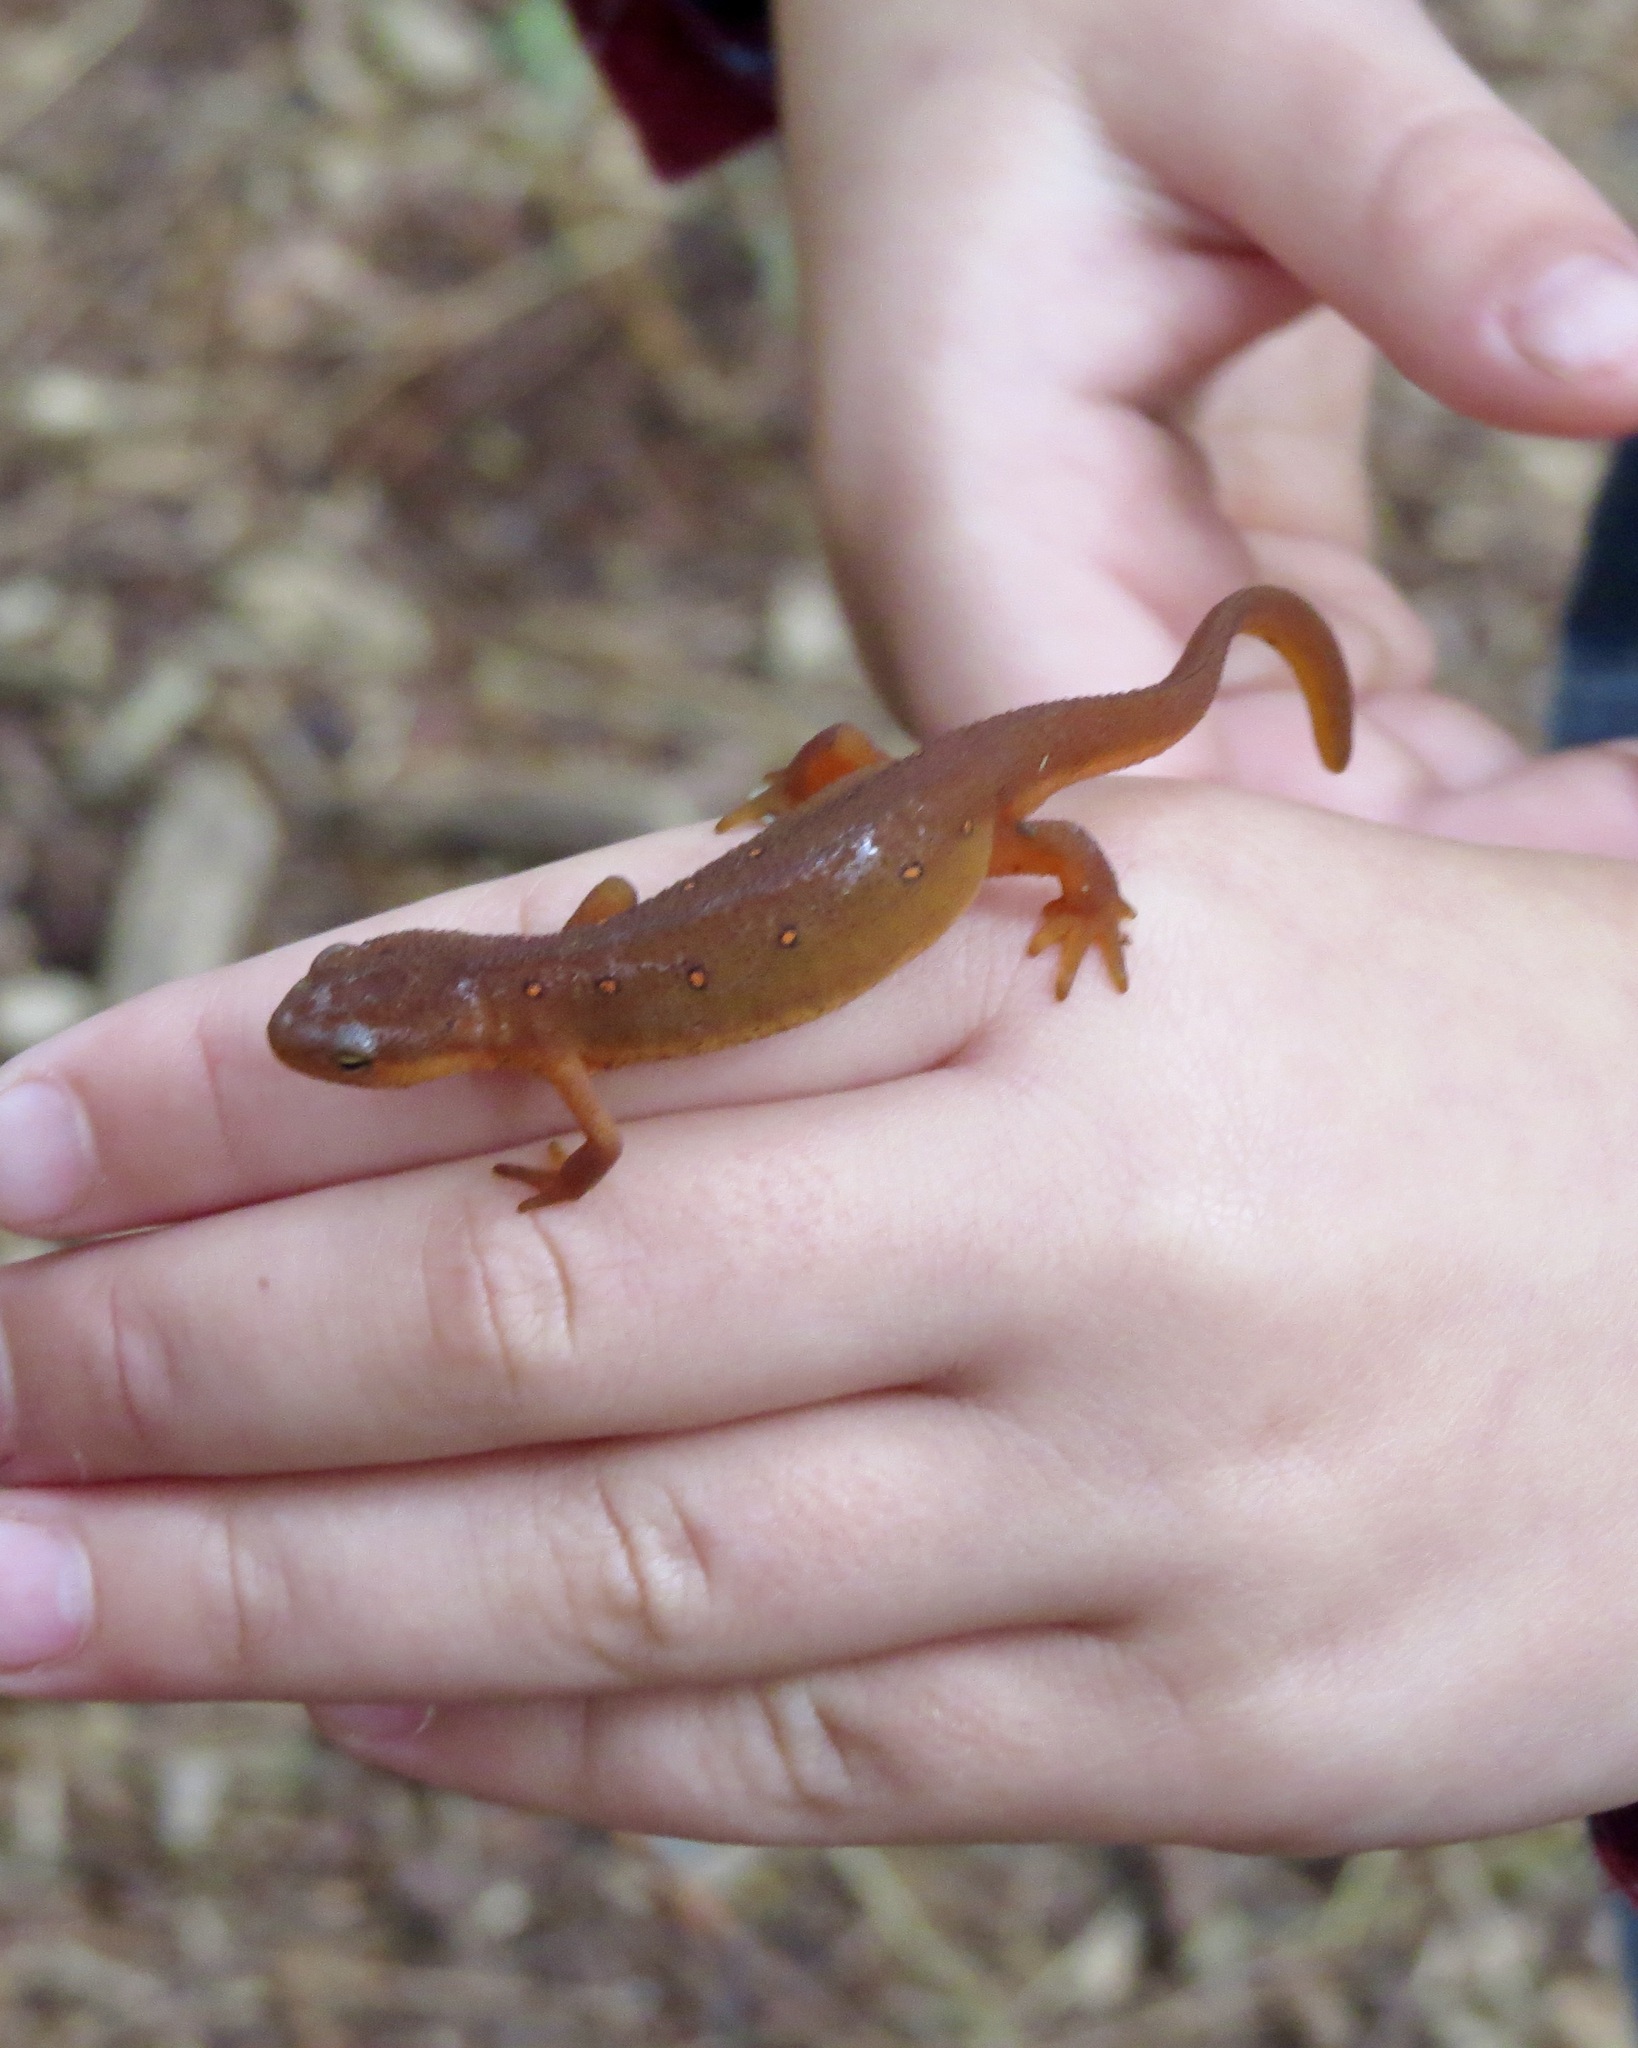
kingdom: Animalia
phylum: Chordata
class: Amphibia
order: Caudata
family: Salamandridae
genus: Notophthalmus
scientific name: Notophthalmus viridescens
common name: Eastern newt
